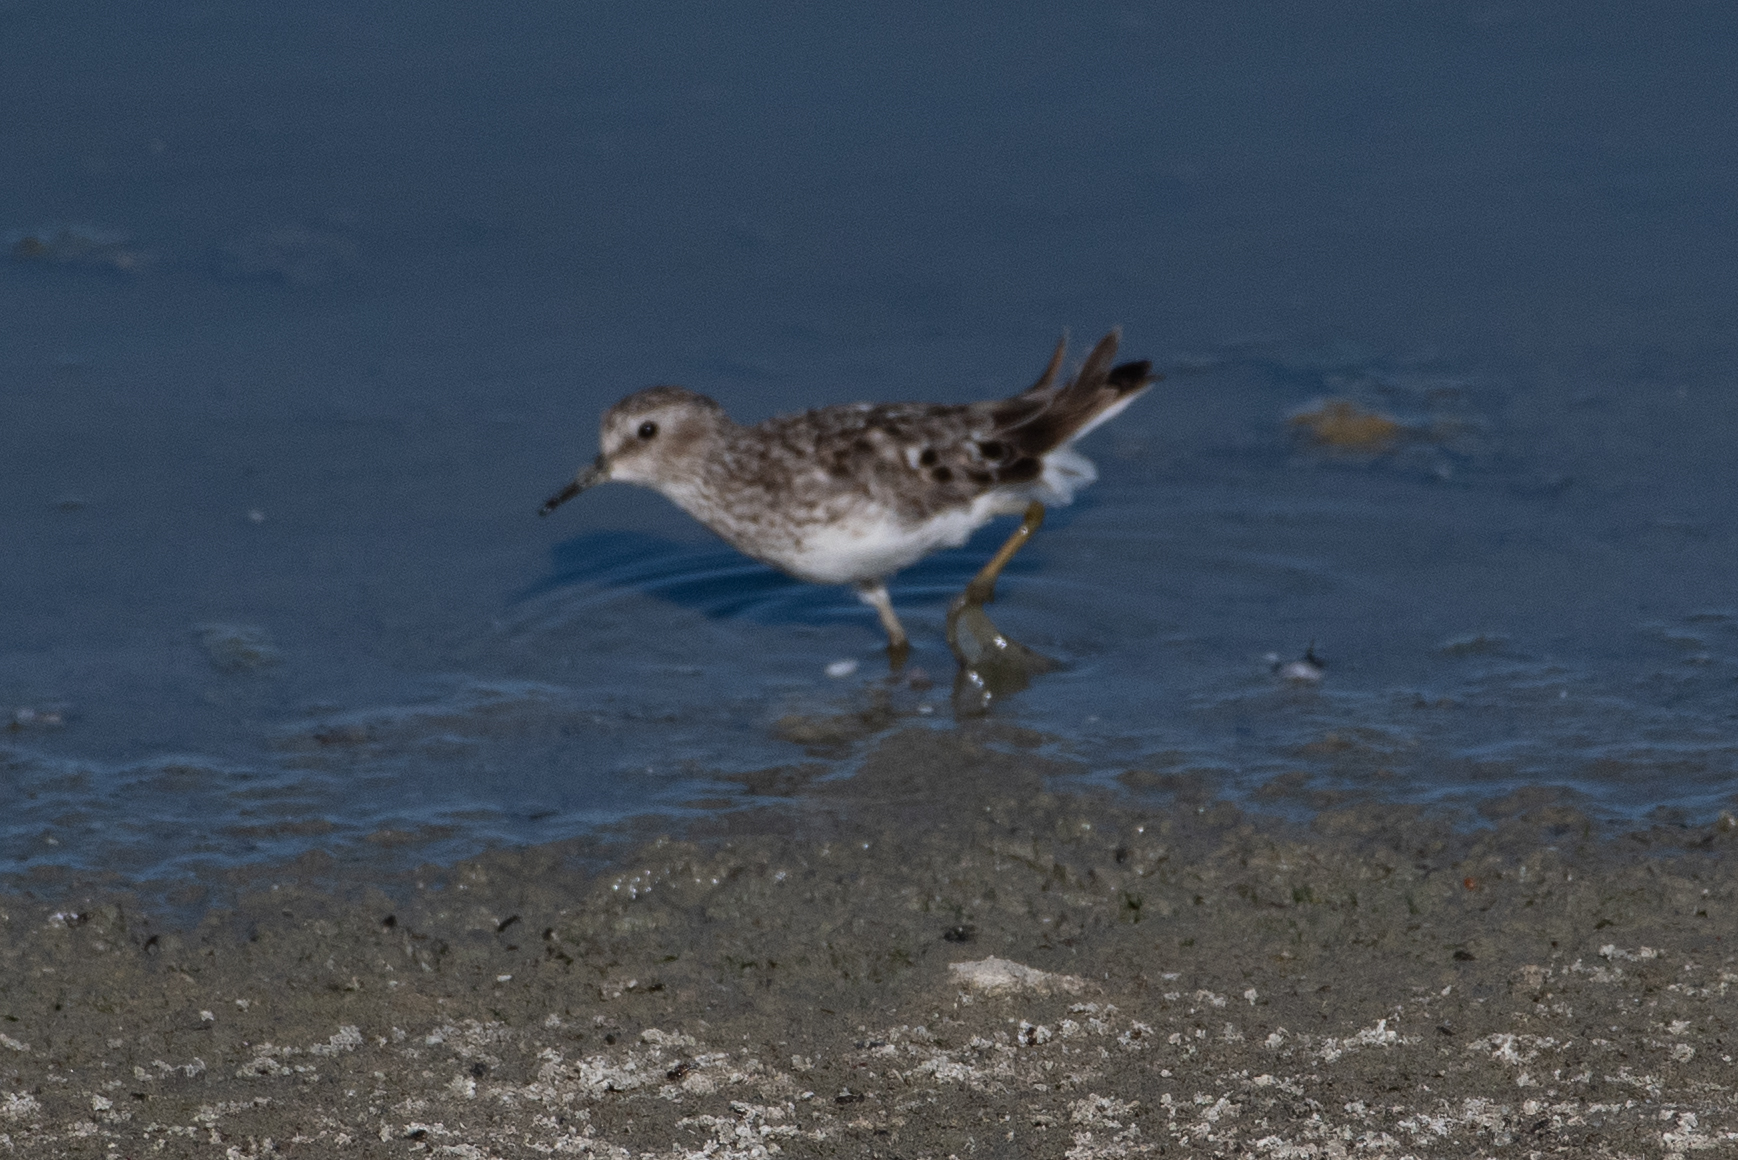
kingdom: Animalia
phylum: Chordata
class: Aves
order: Charadriiformes
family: Scolopacidae
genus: Calidris
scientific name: Calidris minutilla
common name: Least sandpiper
